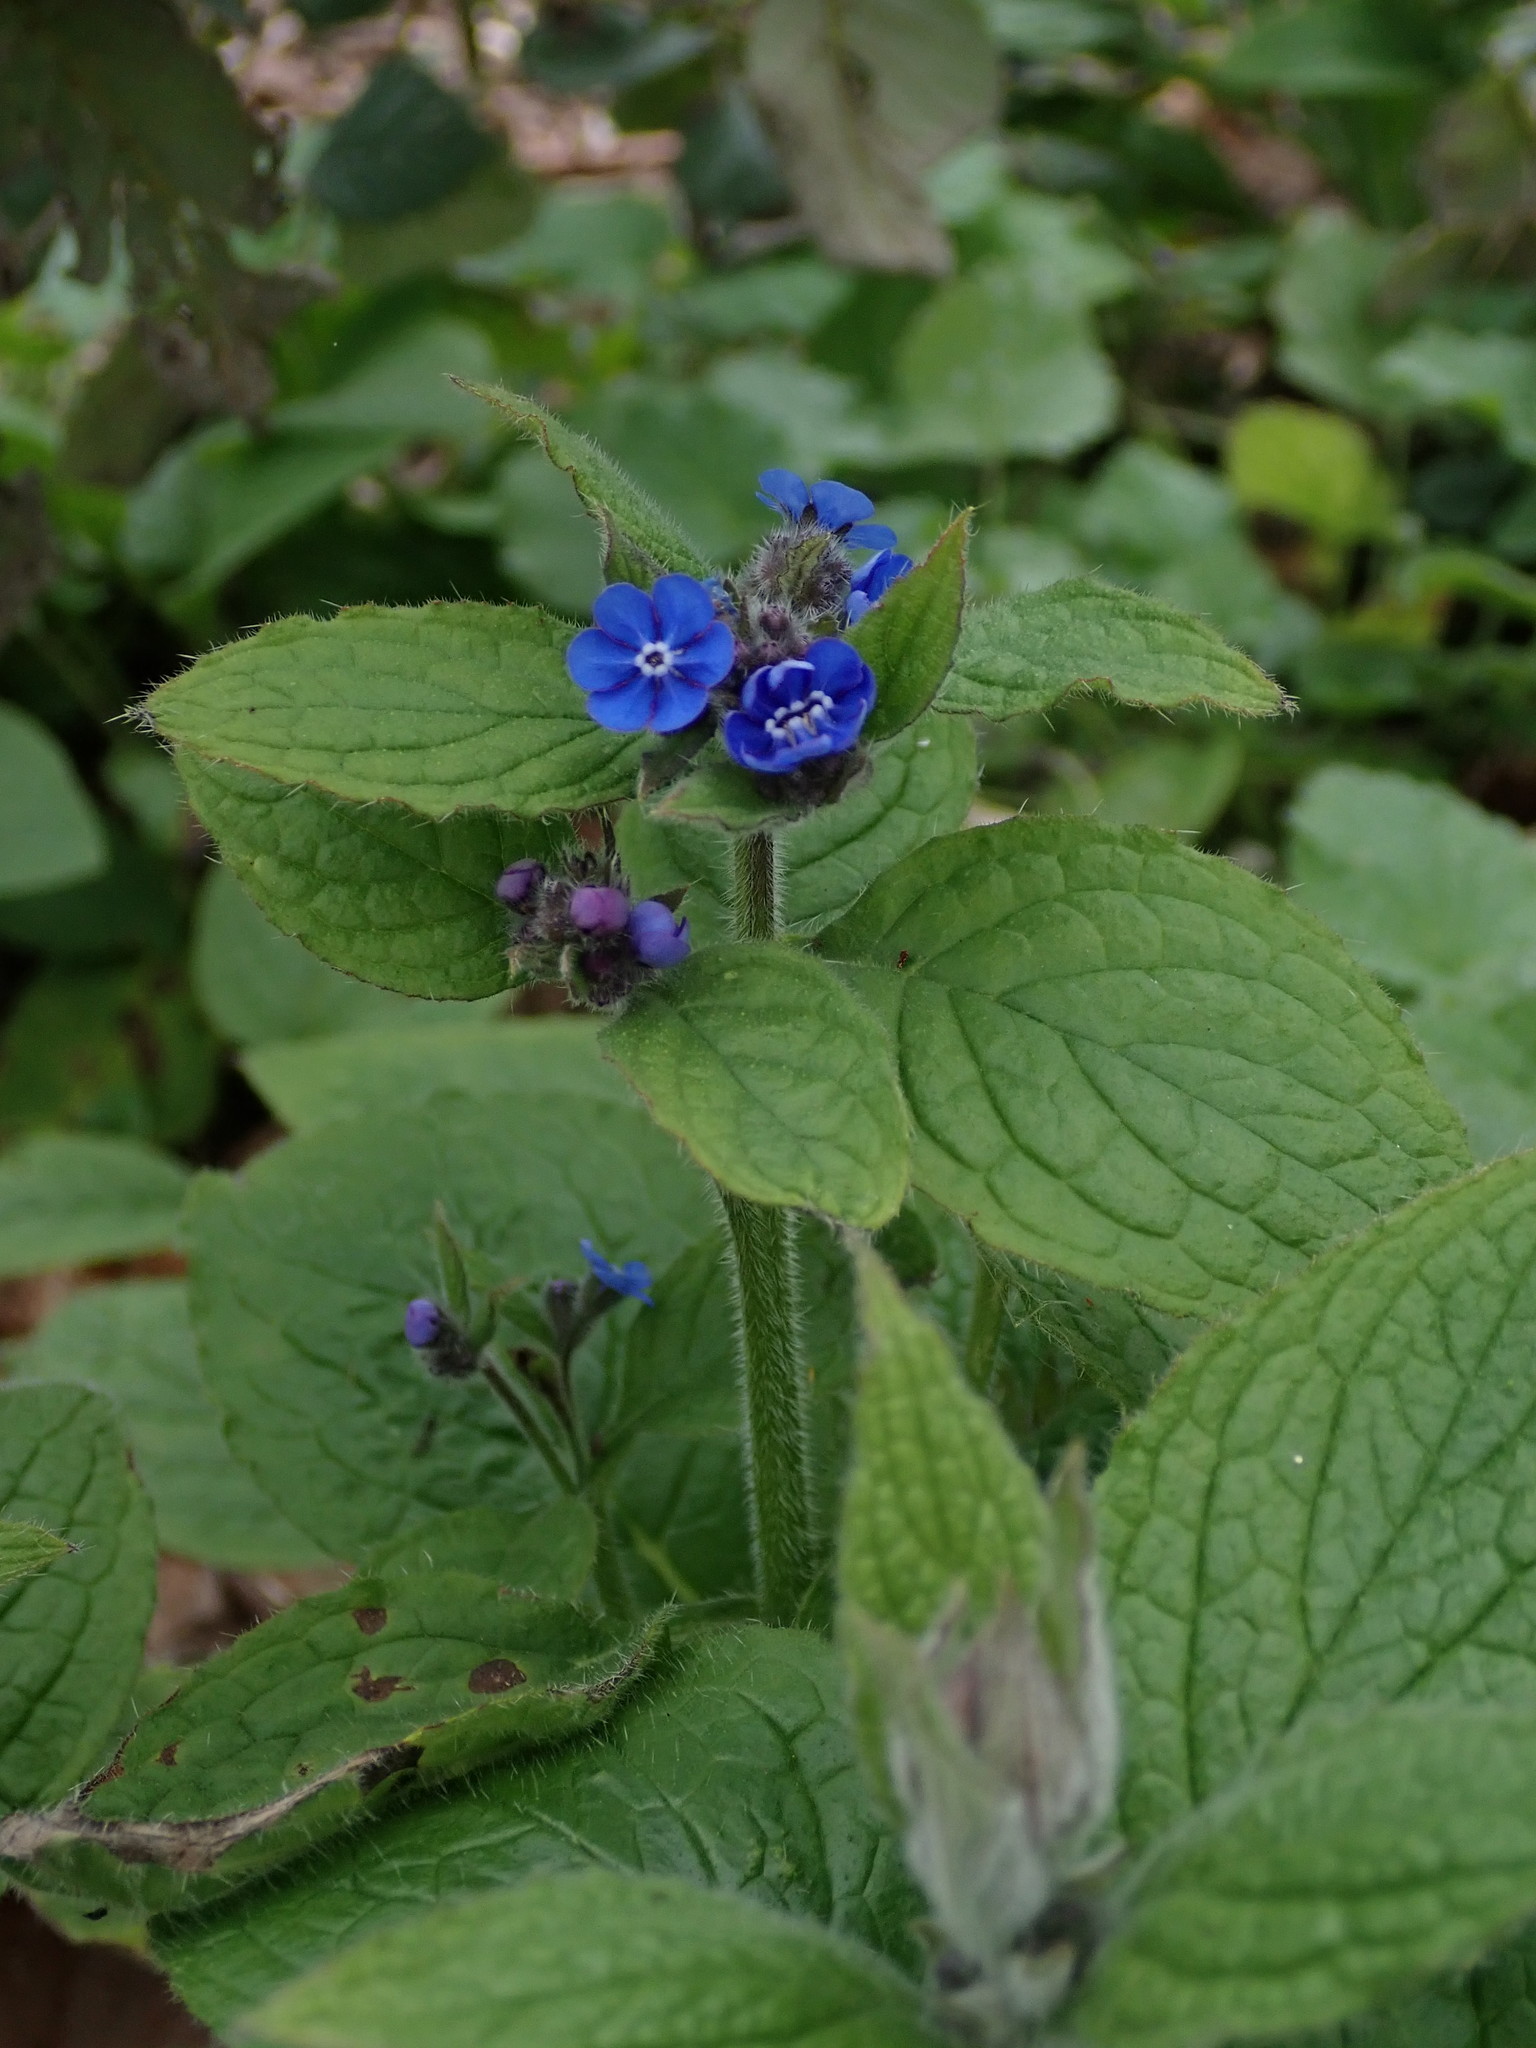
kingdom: Plantae
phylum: Tracheophyta
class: Magnoliopsida
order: Boraginales
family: Boraginaceae
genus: Pentaglottis
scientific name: Pentaglottis sempervirens
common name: Green alkanet
